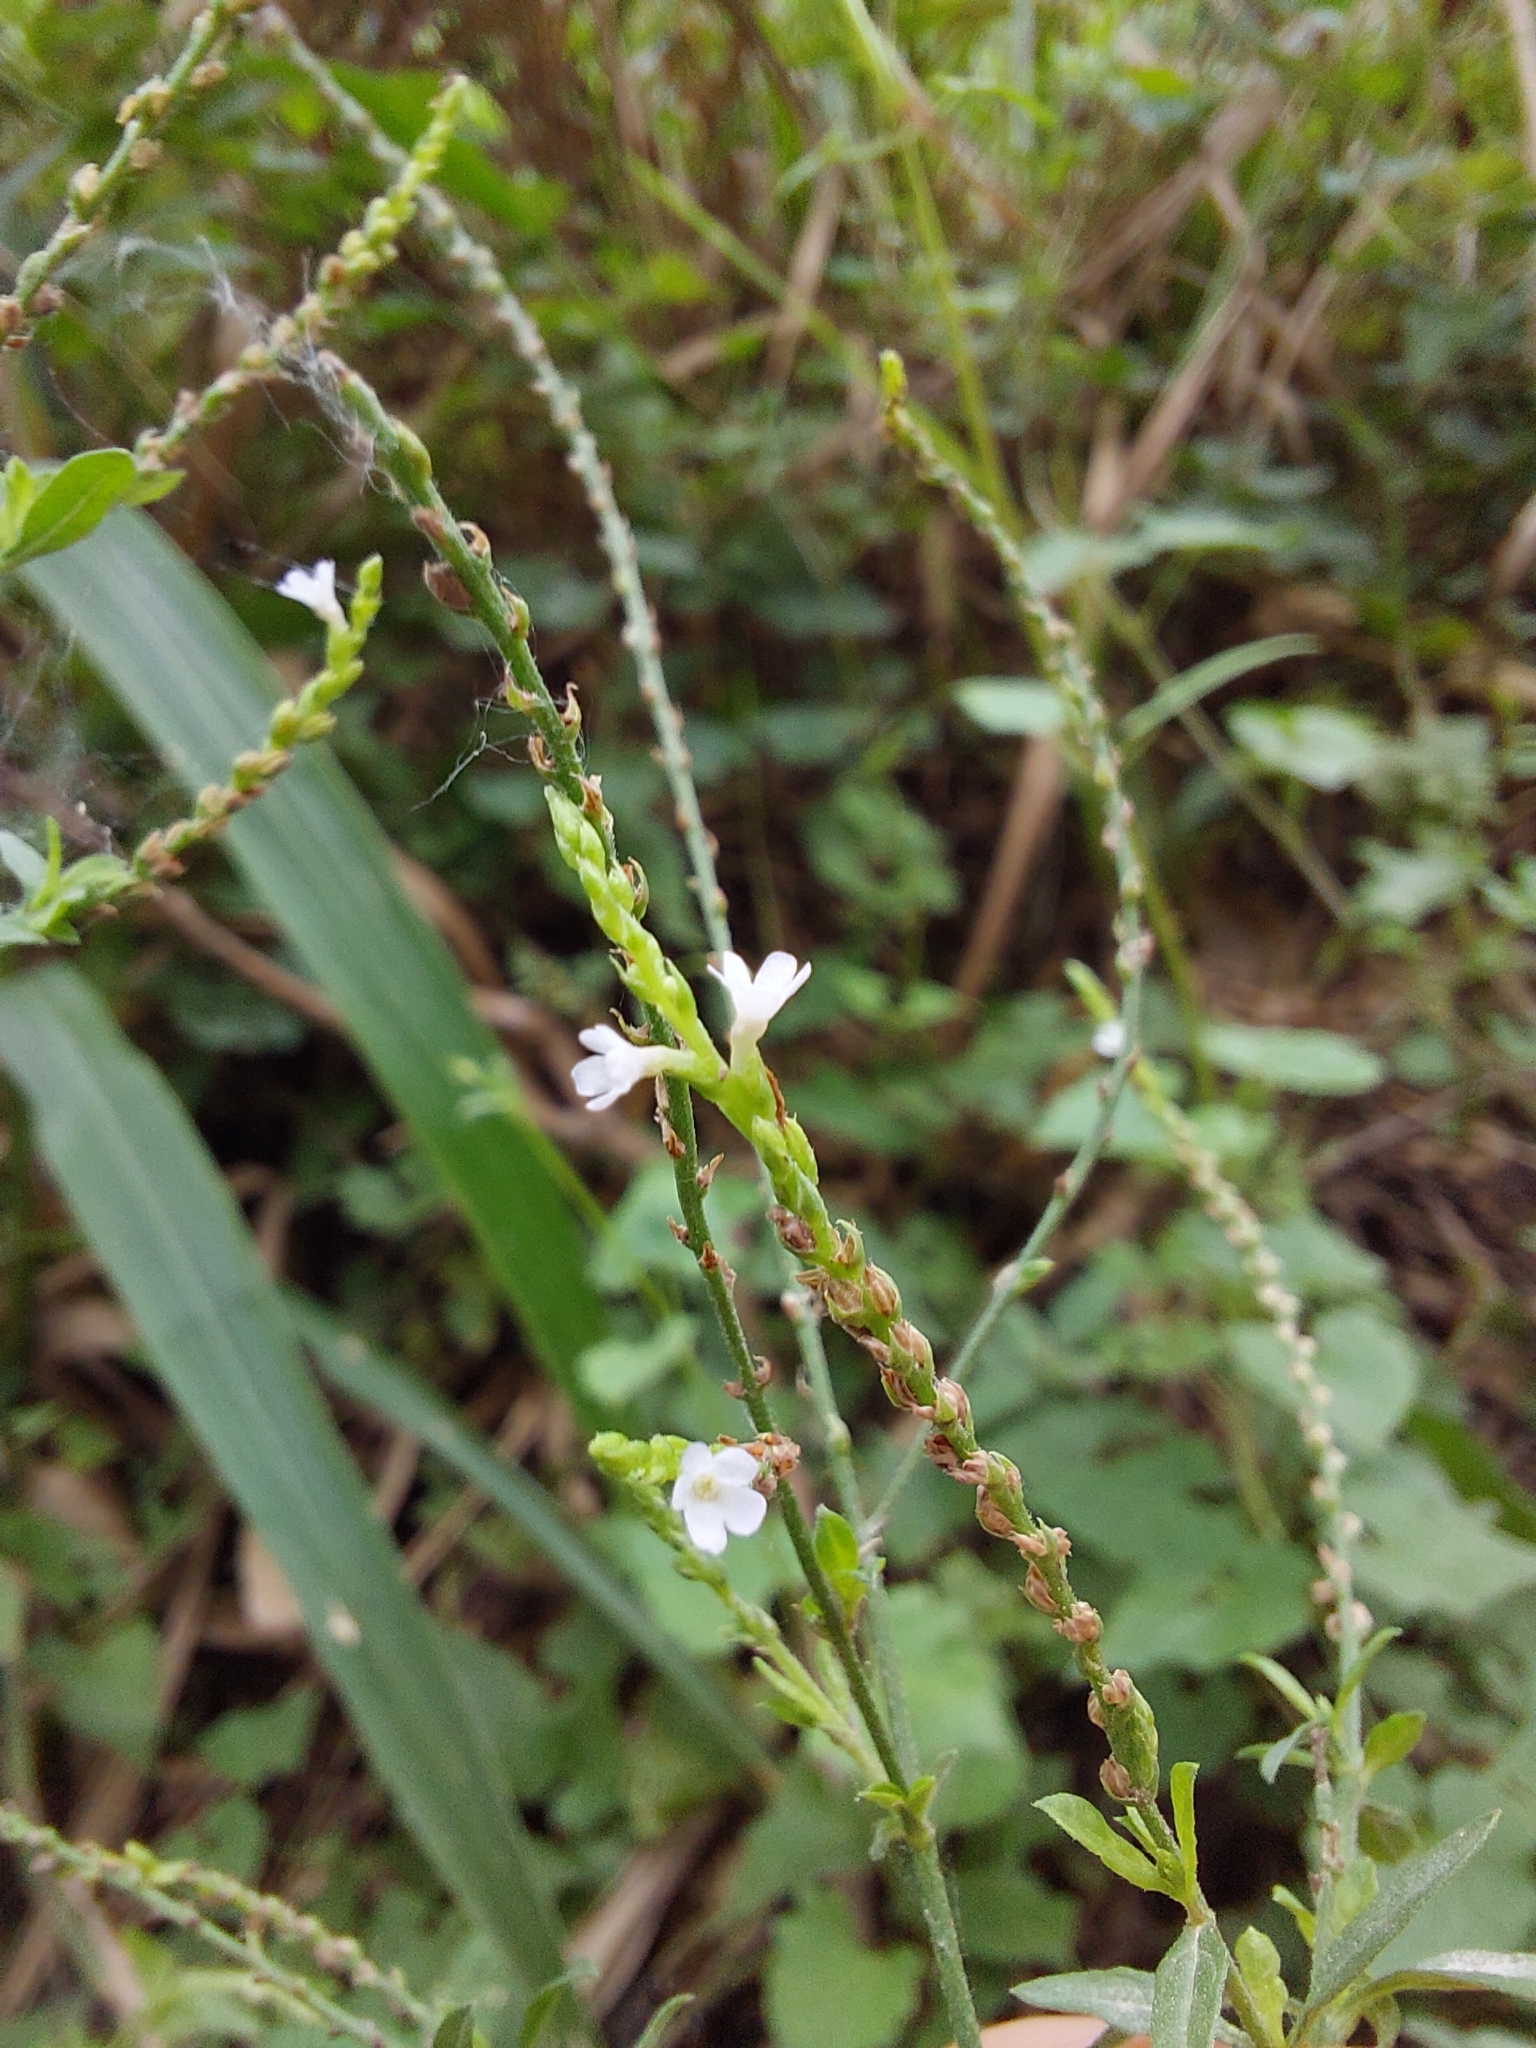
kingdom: Plantae
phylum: Tracheophyta
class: Magnoliopsida
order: Lamiales
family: Verbenaceae
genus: Verbena
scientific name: Verbena gracilescens
